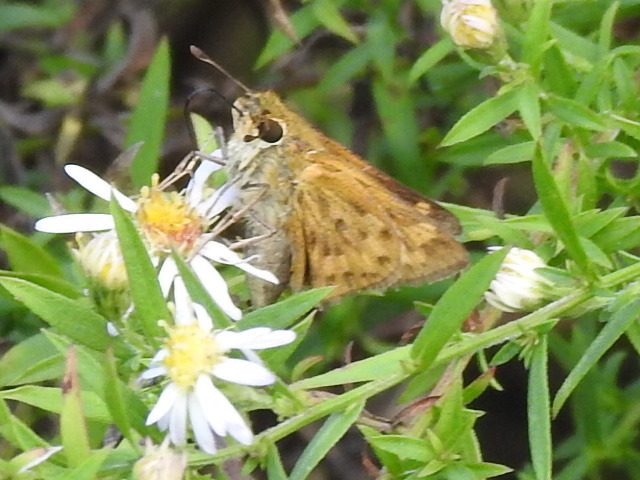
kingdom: Animalia
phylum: Arthropoda
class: Insecta
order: Lepidoptera
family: Hesperiidae
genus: Hylephila
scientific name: Hylephila phyleus
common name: Fiery skipper
